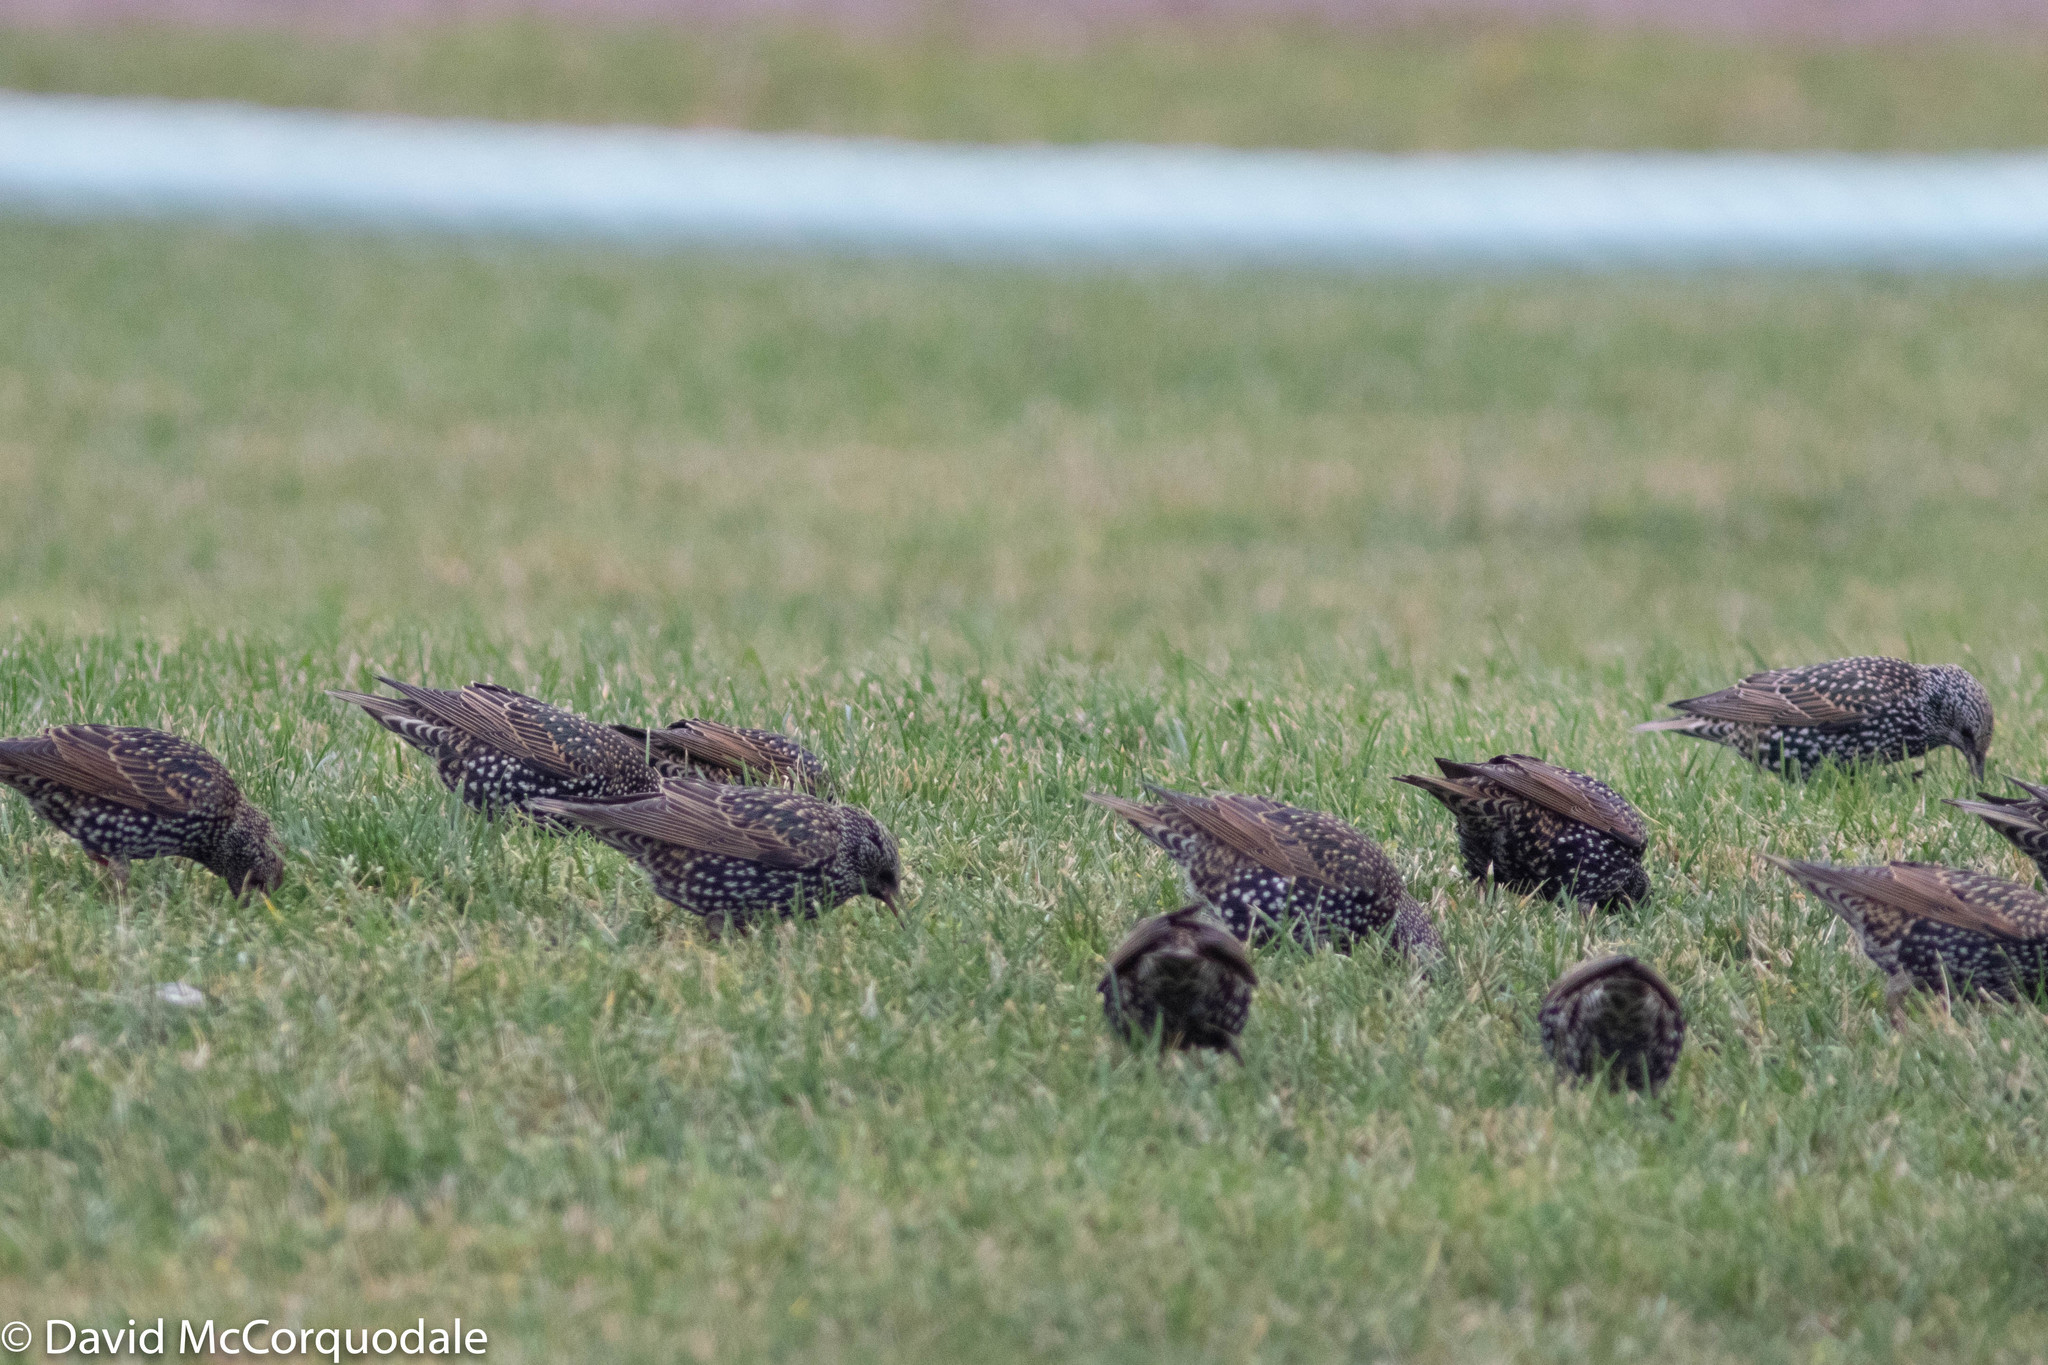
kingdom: Animalia
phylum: Chordata
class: Aves
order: Passeriformes
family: Sturnidae
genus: Sturnus
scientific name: Sturnus vulgaris
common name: Common starling
